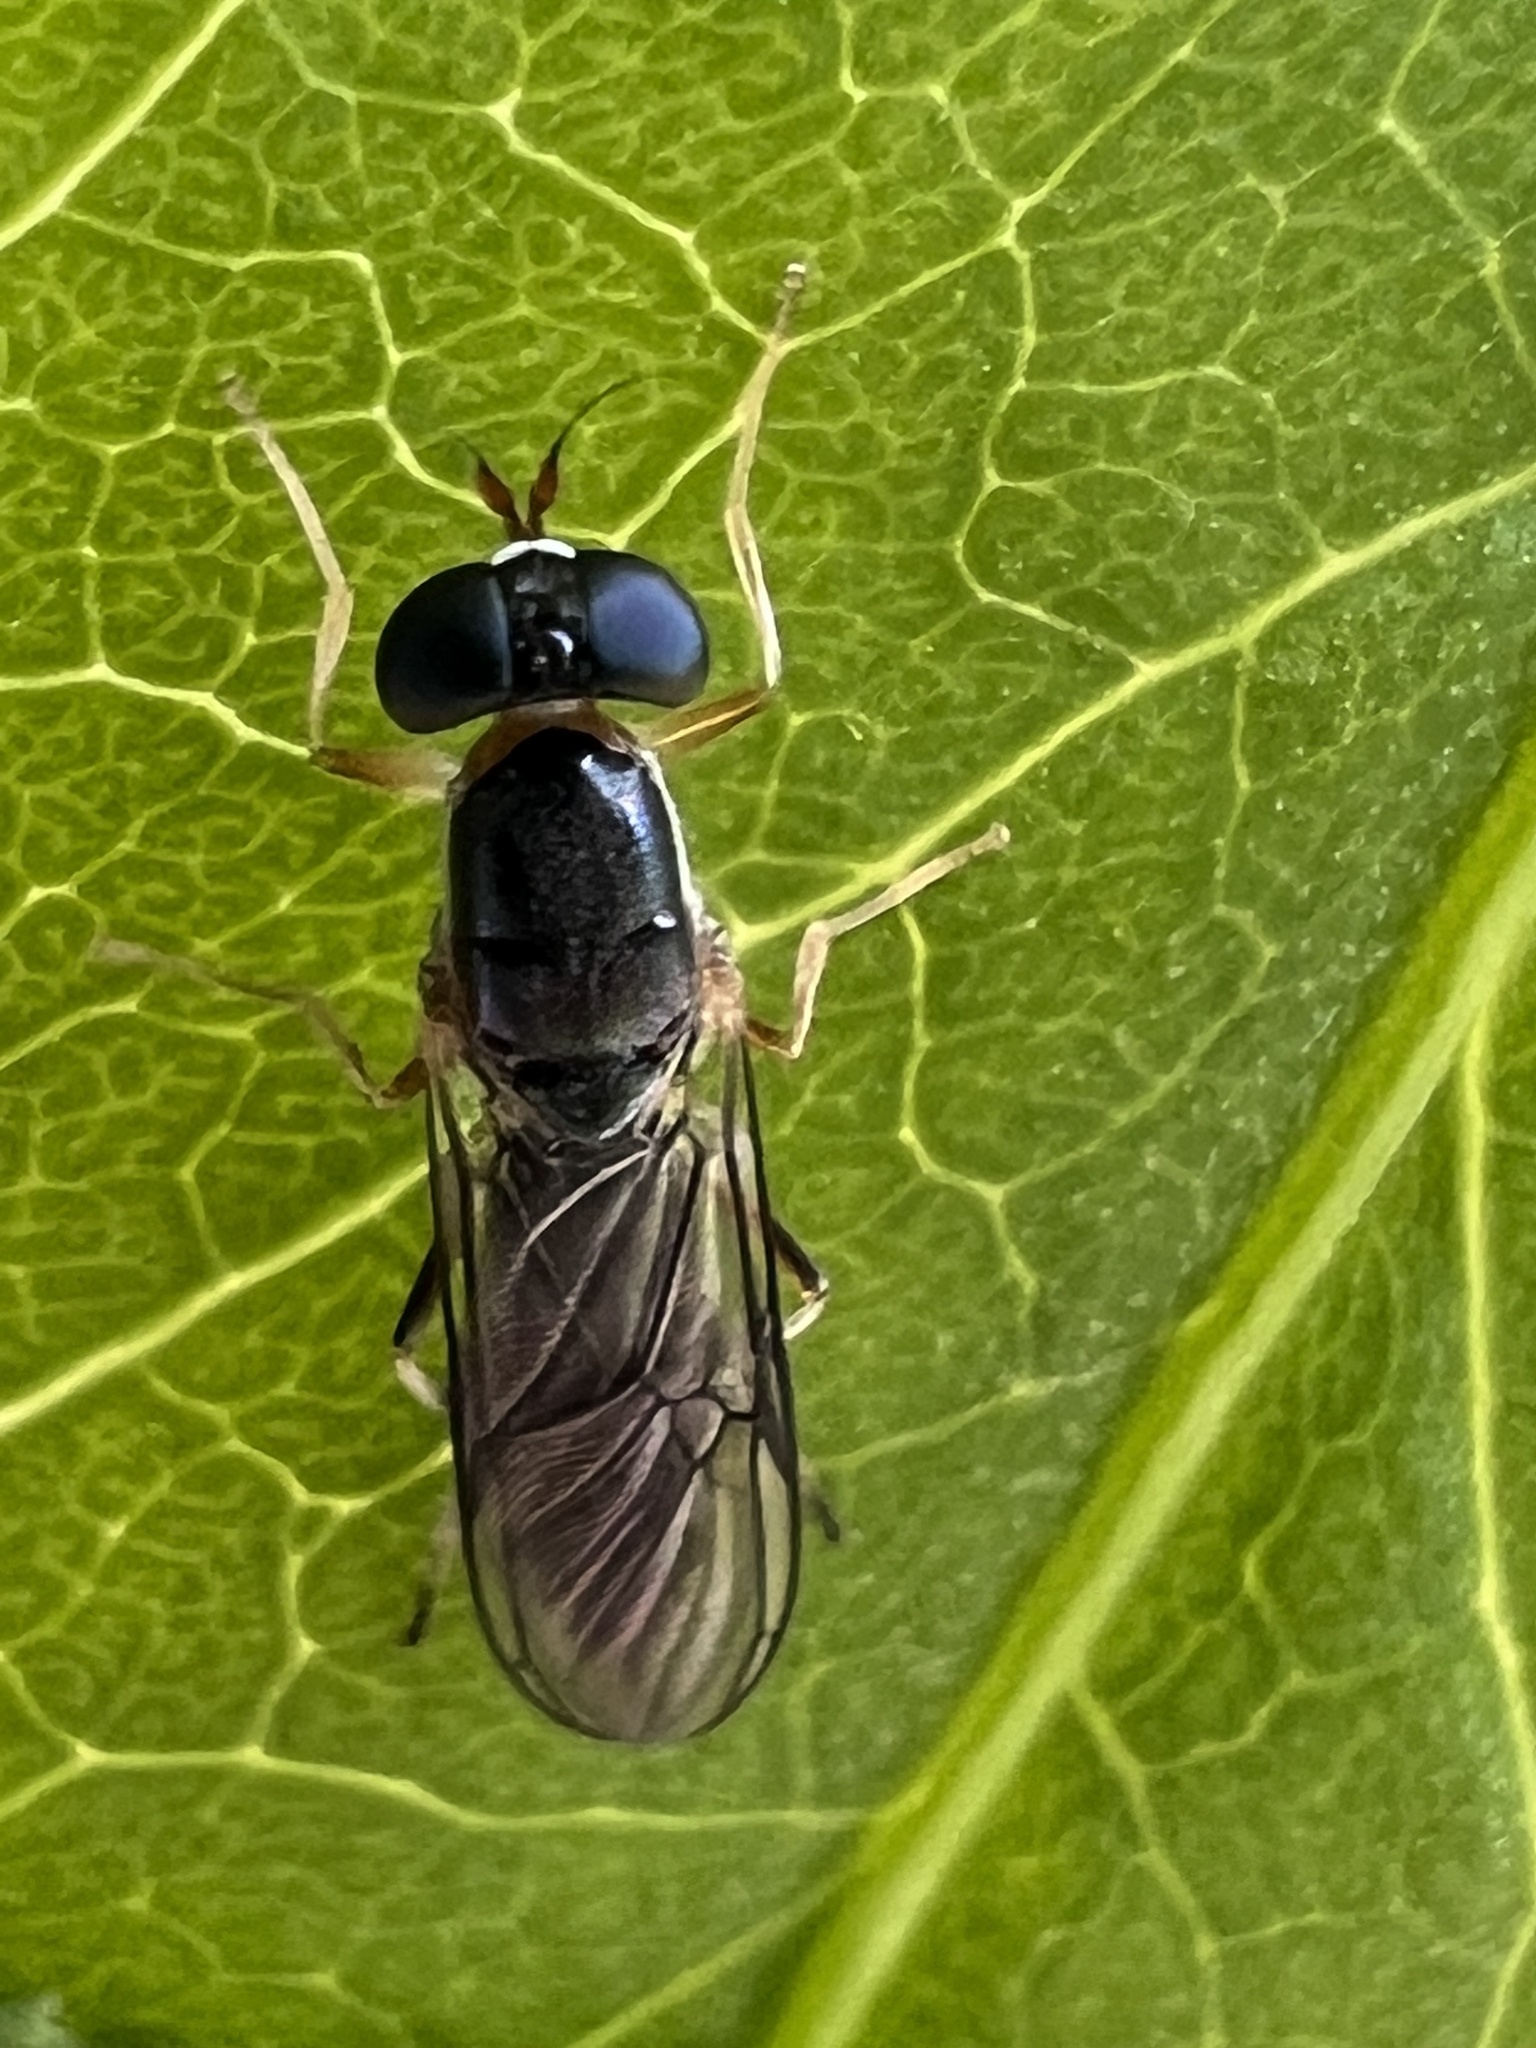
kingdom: Animalia
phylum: Arthropoda
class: Insecta
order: Diptera
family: Stratiomyidae
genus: Merosargus
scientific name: Merosargus caeruleifrons
